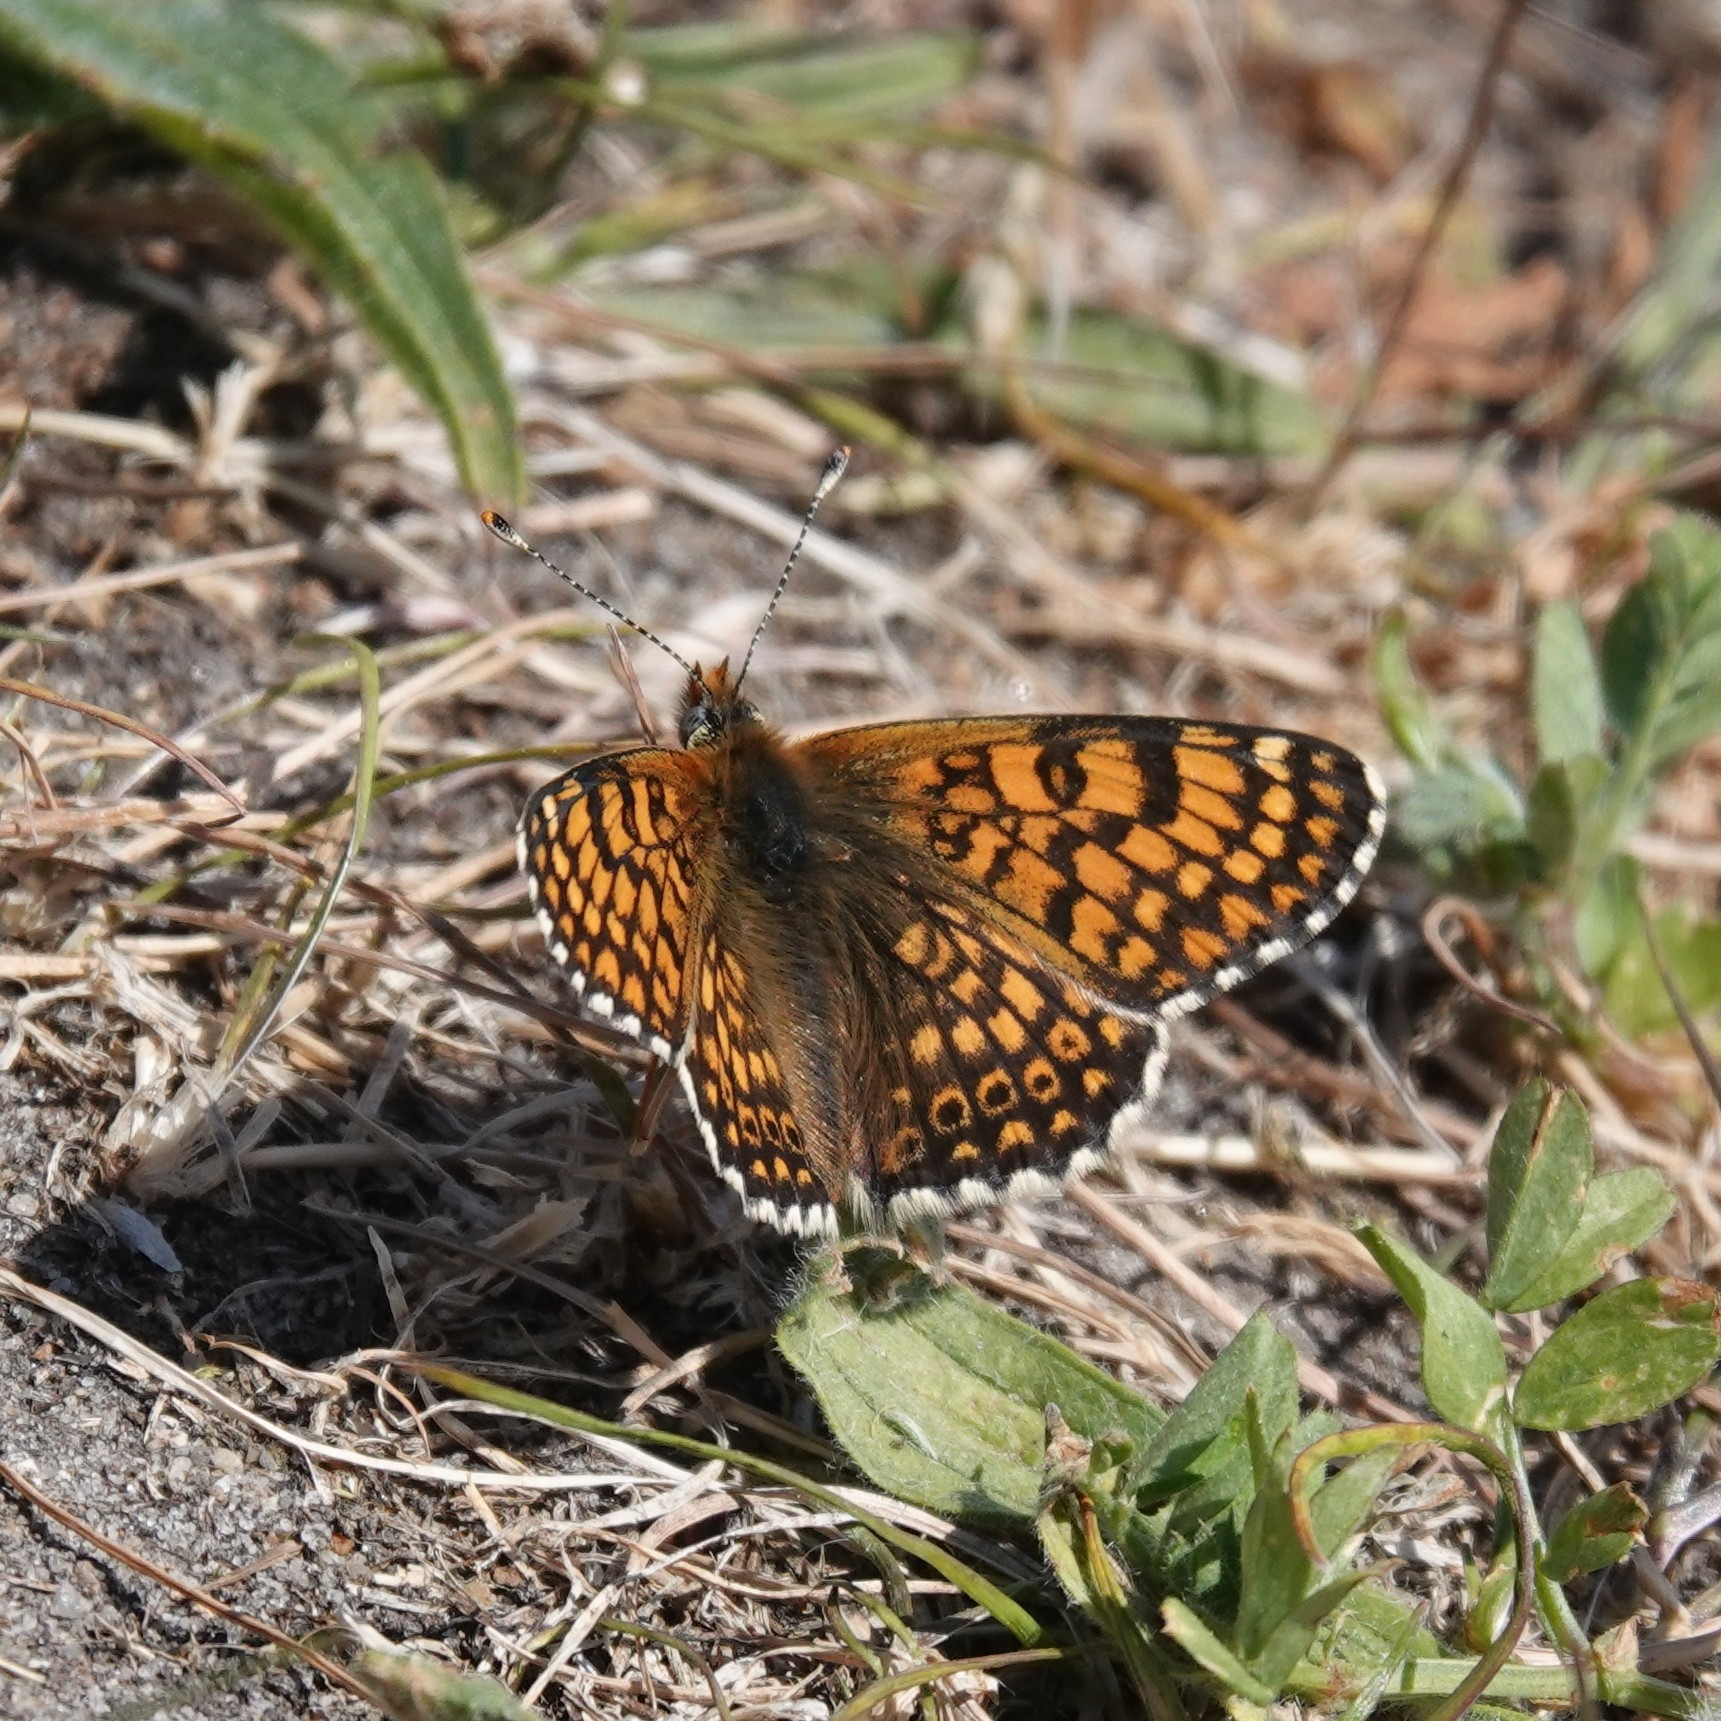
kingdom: Animalia
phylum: Arthropoda
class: Insecta
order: Lepidoptera
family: Nymphalidae
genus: Melitaea
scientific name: Melitaea cinxia
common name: Glanville fritillary
